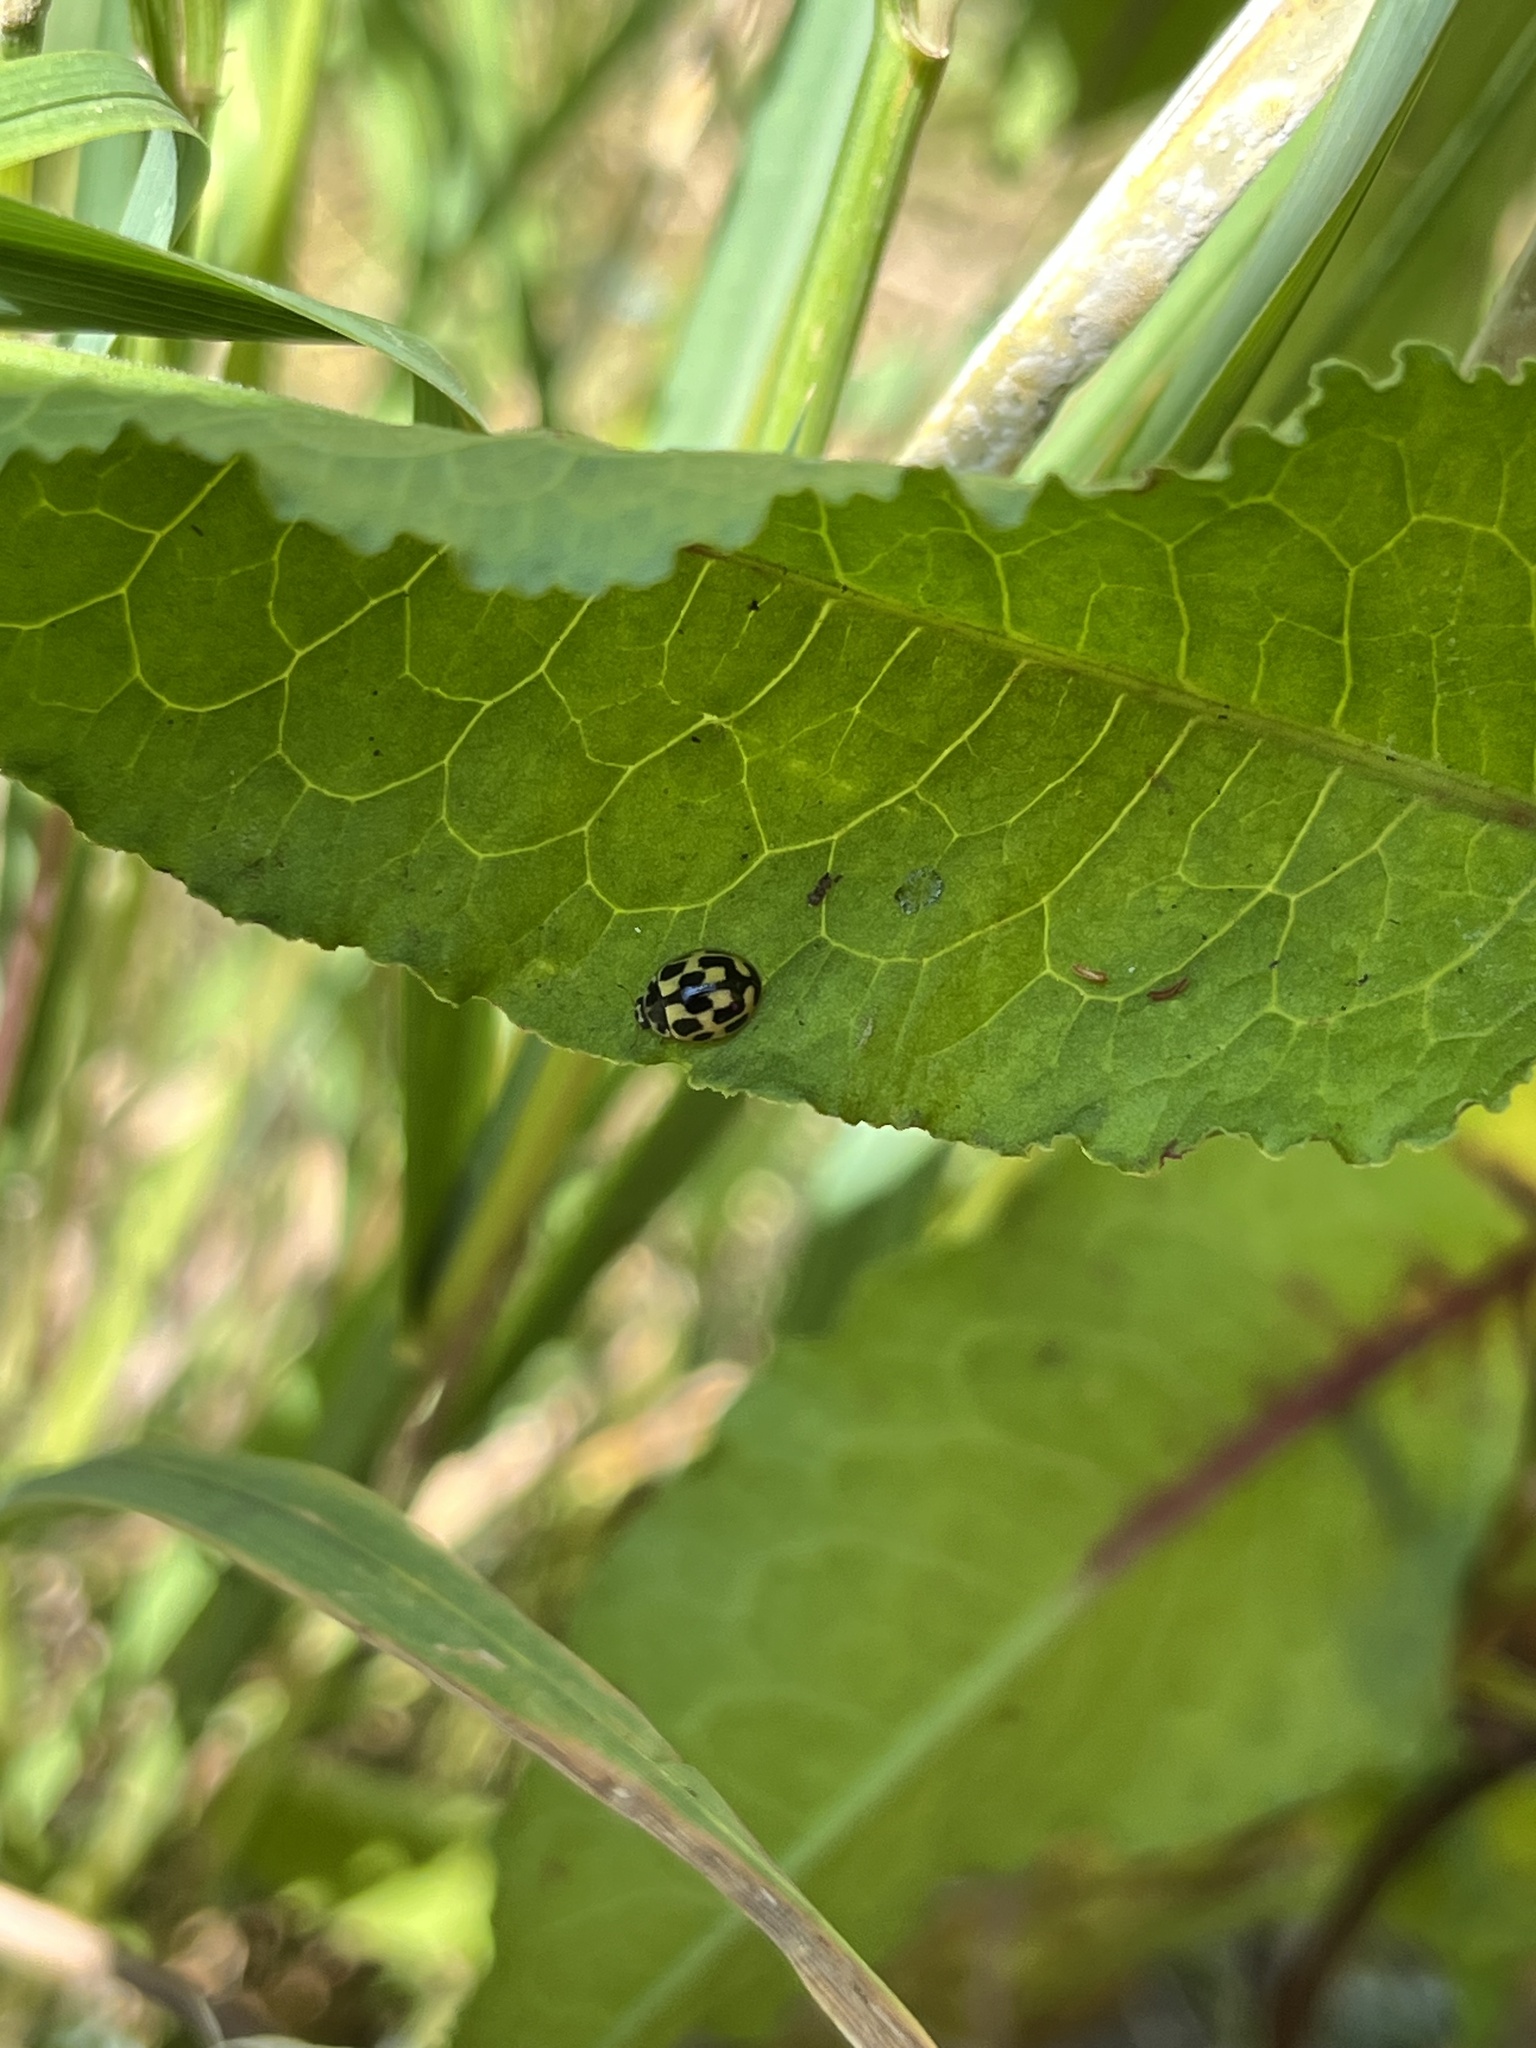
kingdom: Animalia
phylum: Arthropoda
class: Insecta
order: Coleoptera
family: Coccinellidae
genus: Propylaea
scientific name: Propylaea quatuordecimpunctata
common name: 14-spotted ladybird beetle
